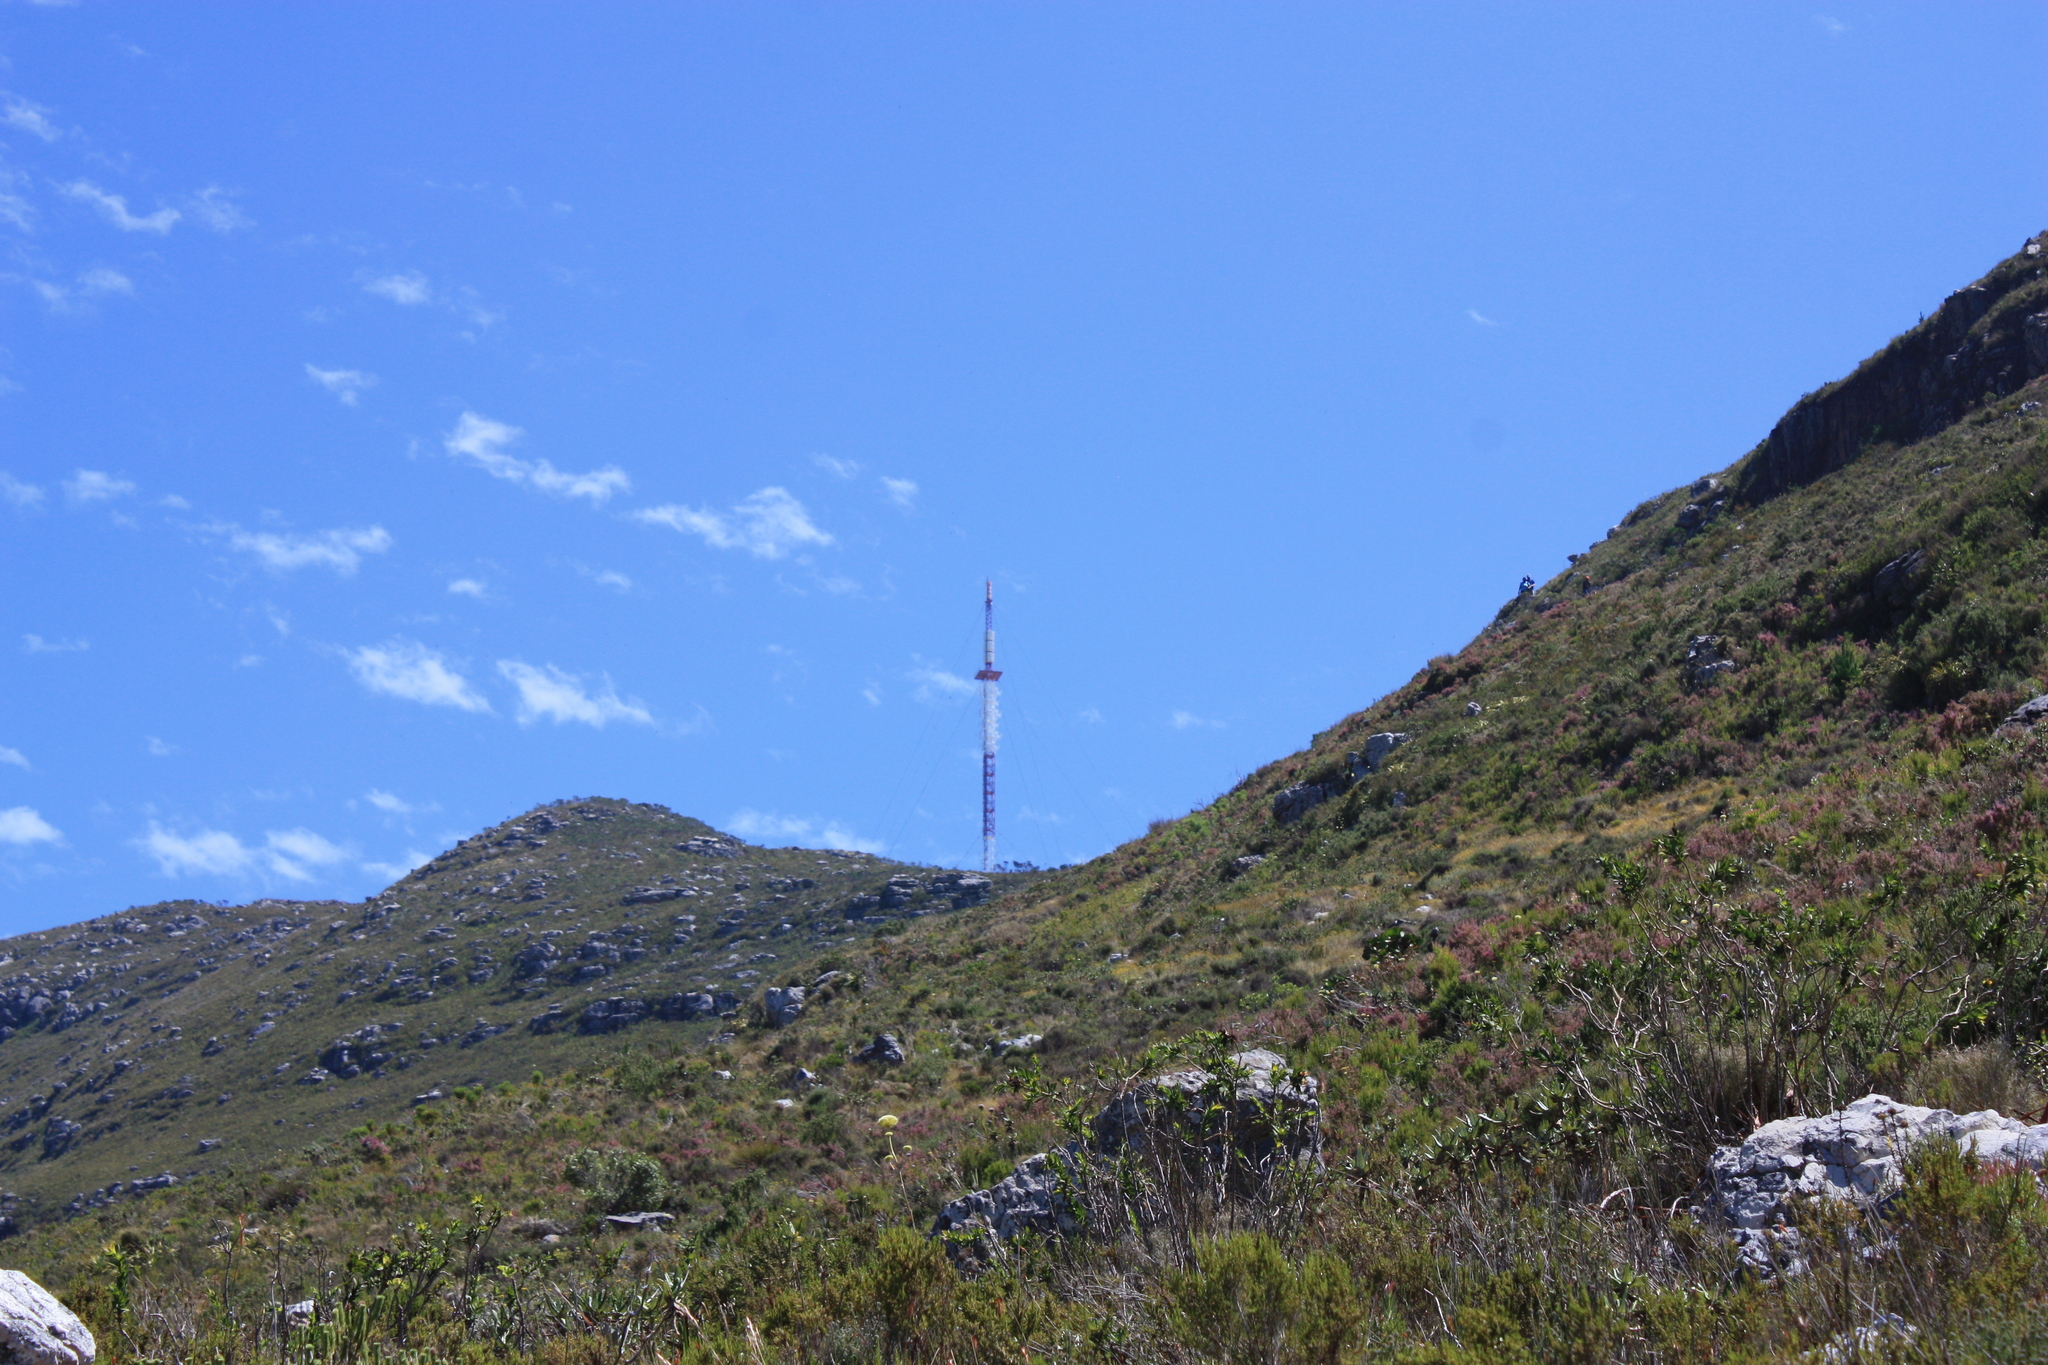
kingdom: Plantae
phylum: Tracheophyta
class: Magnoliopsida
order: Fabales
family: Fabaceae
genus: Liparia
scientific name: Liparia splendens
